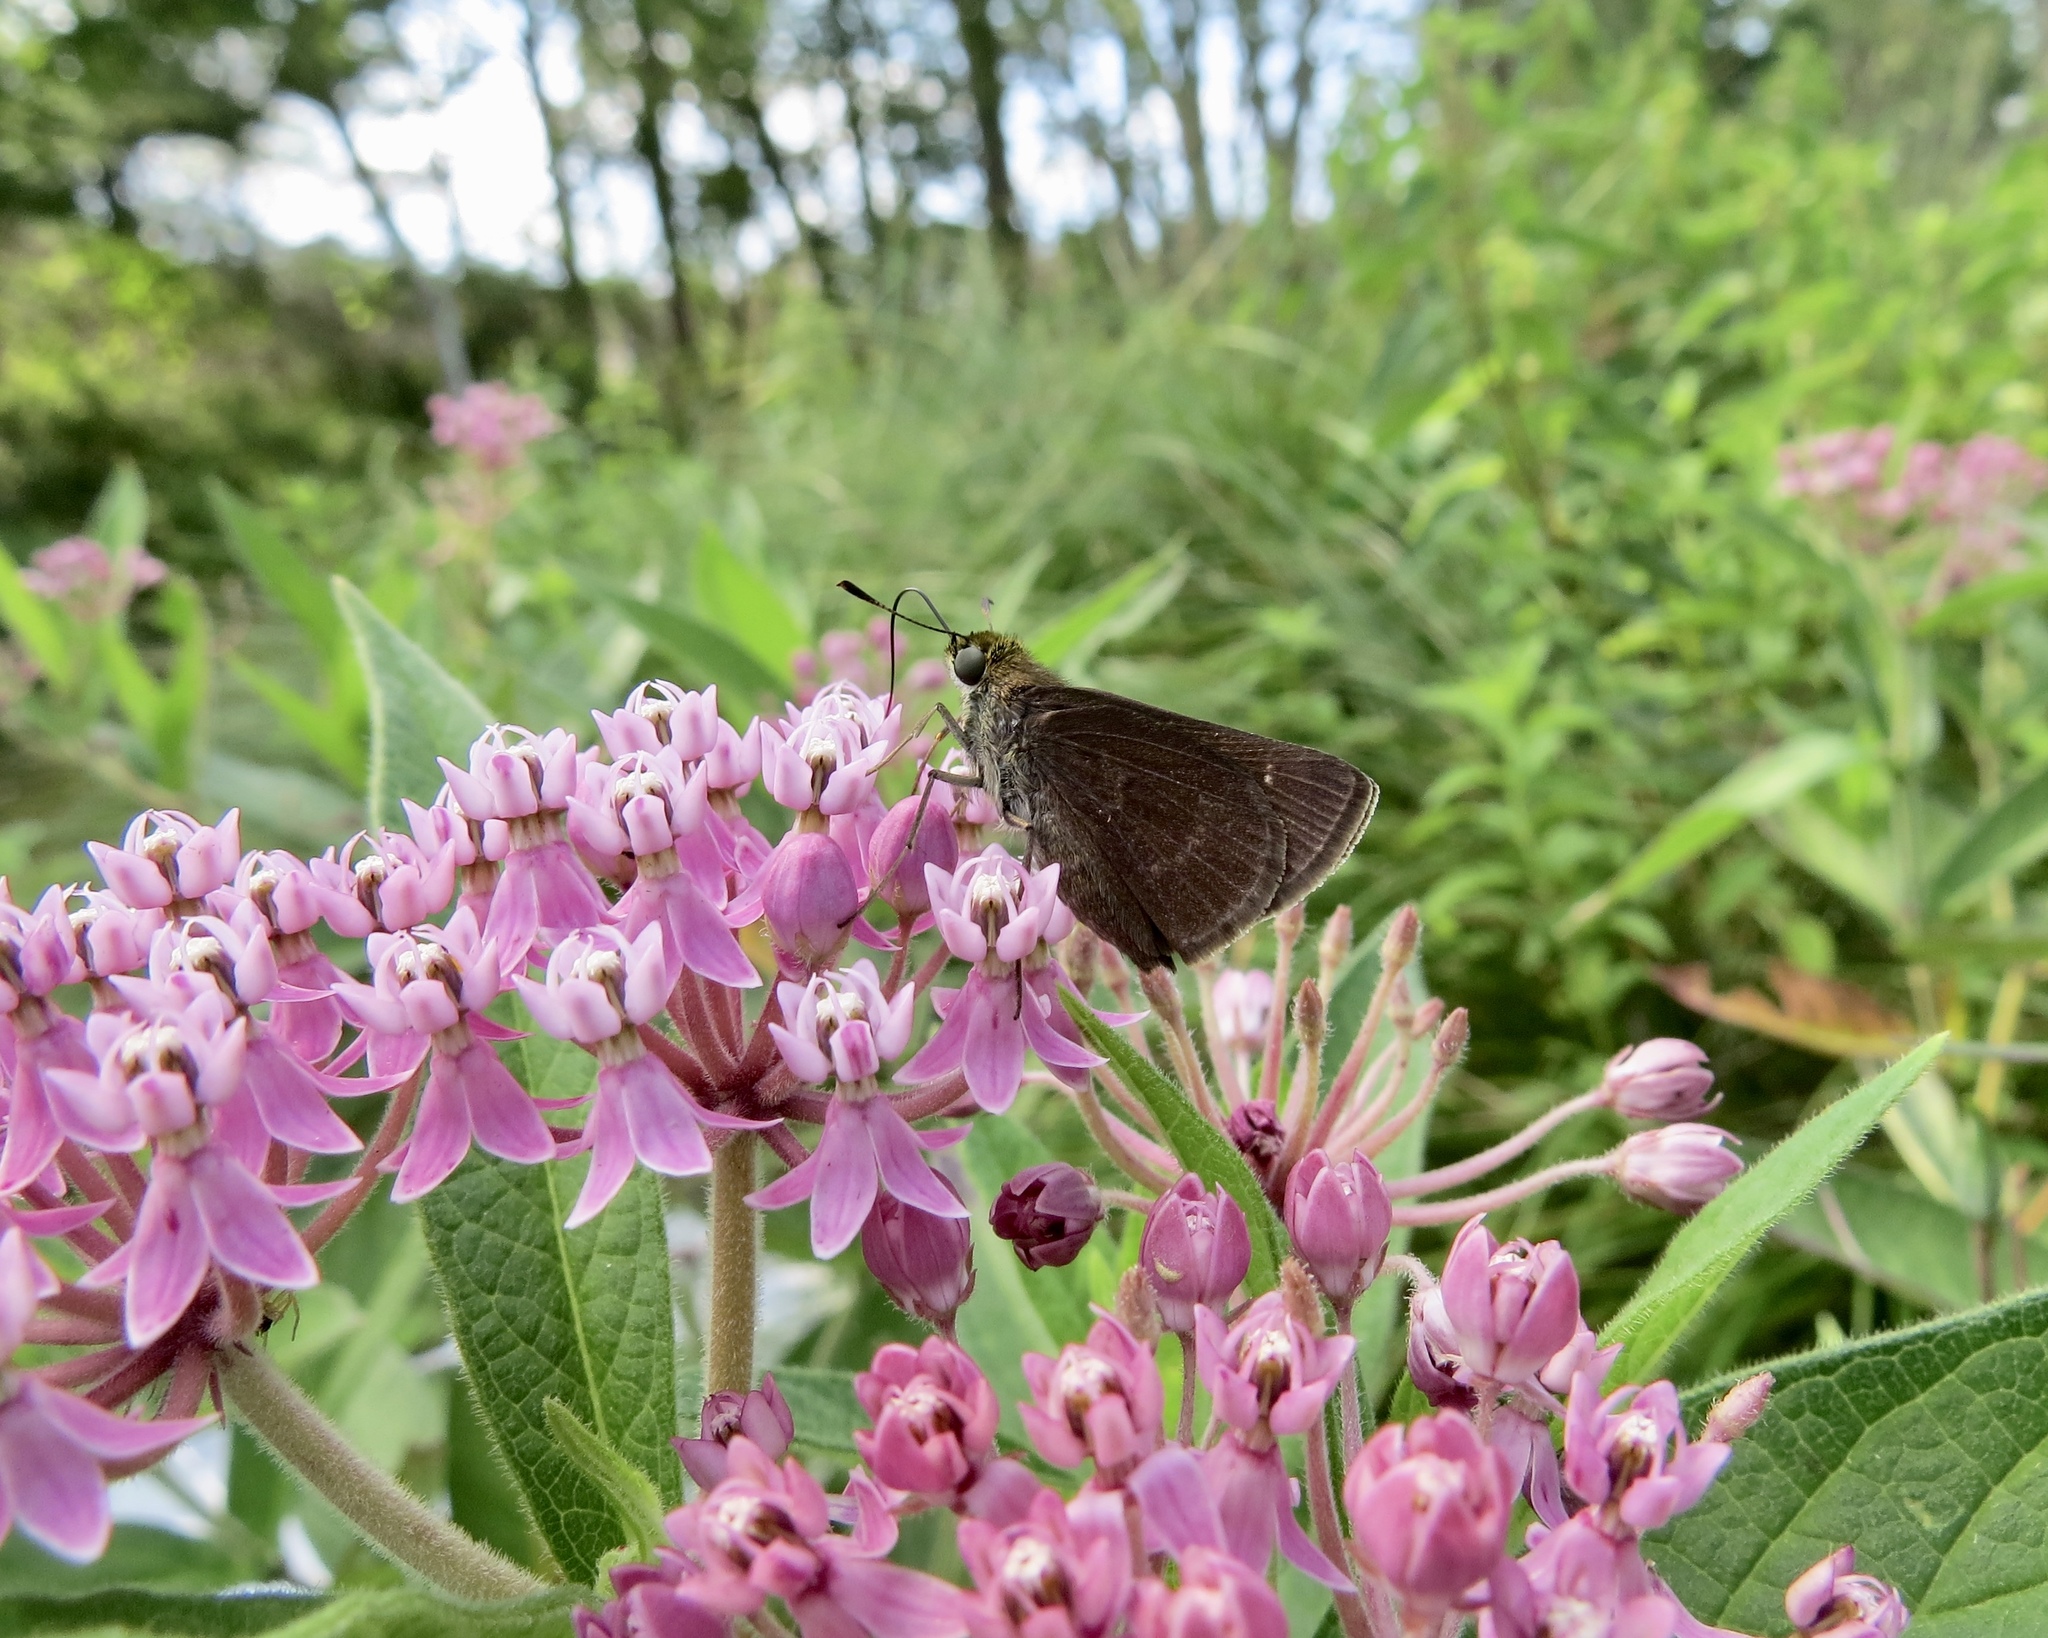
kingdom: Animalia
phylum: Arthropoda
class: Insecta
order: Lepidoptera
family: Hesperiidae
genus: Euphyes
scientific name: Euphyes vestris
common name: Dun skipper
